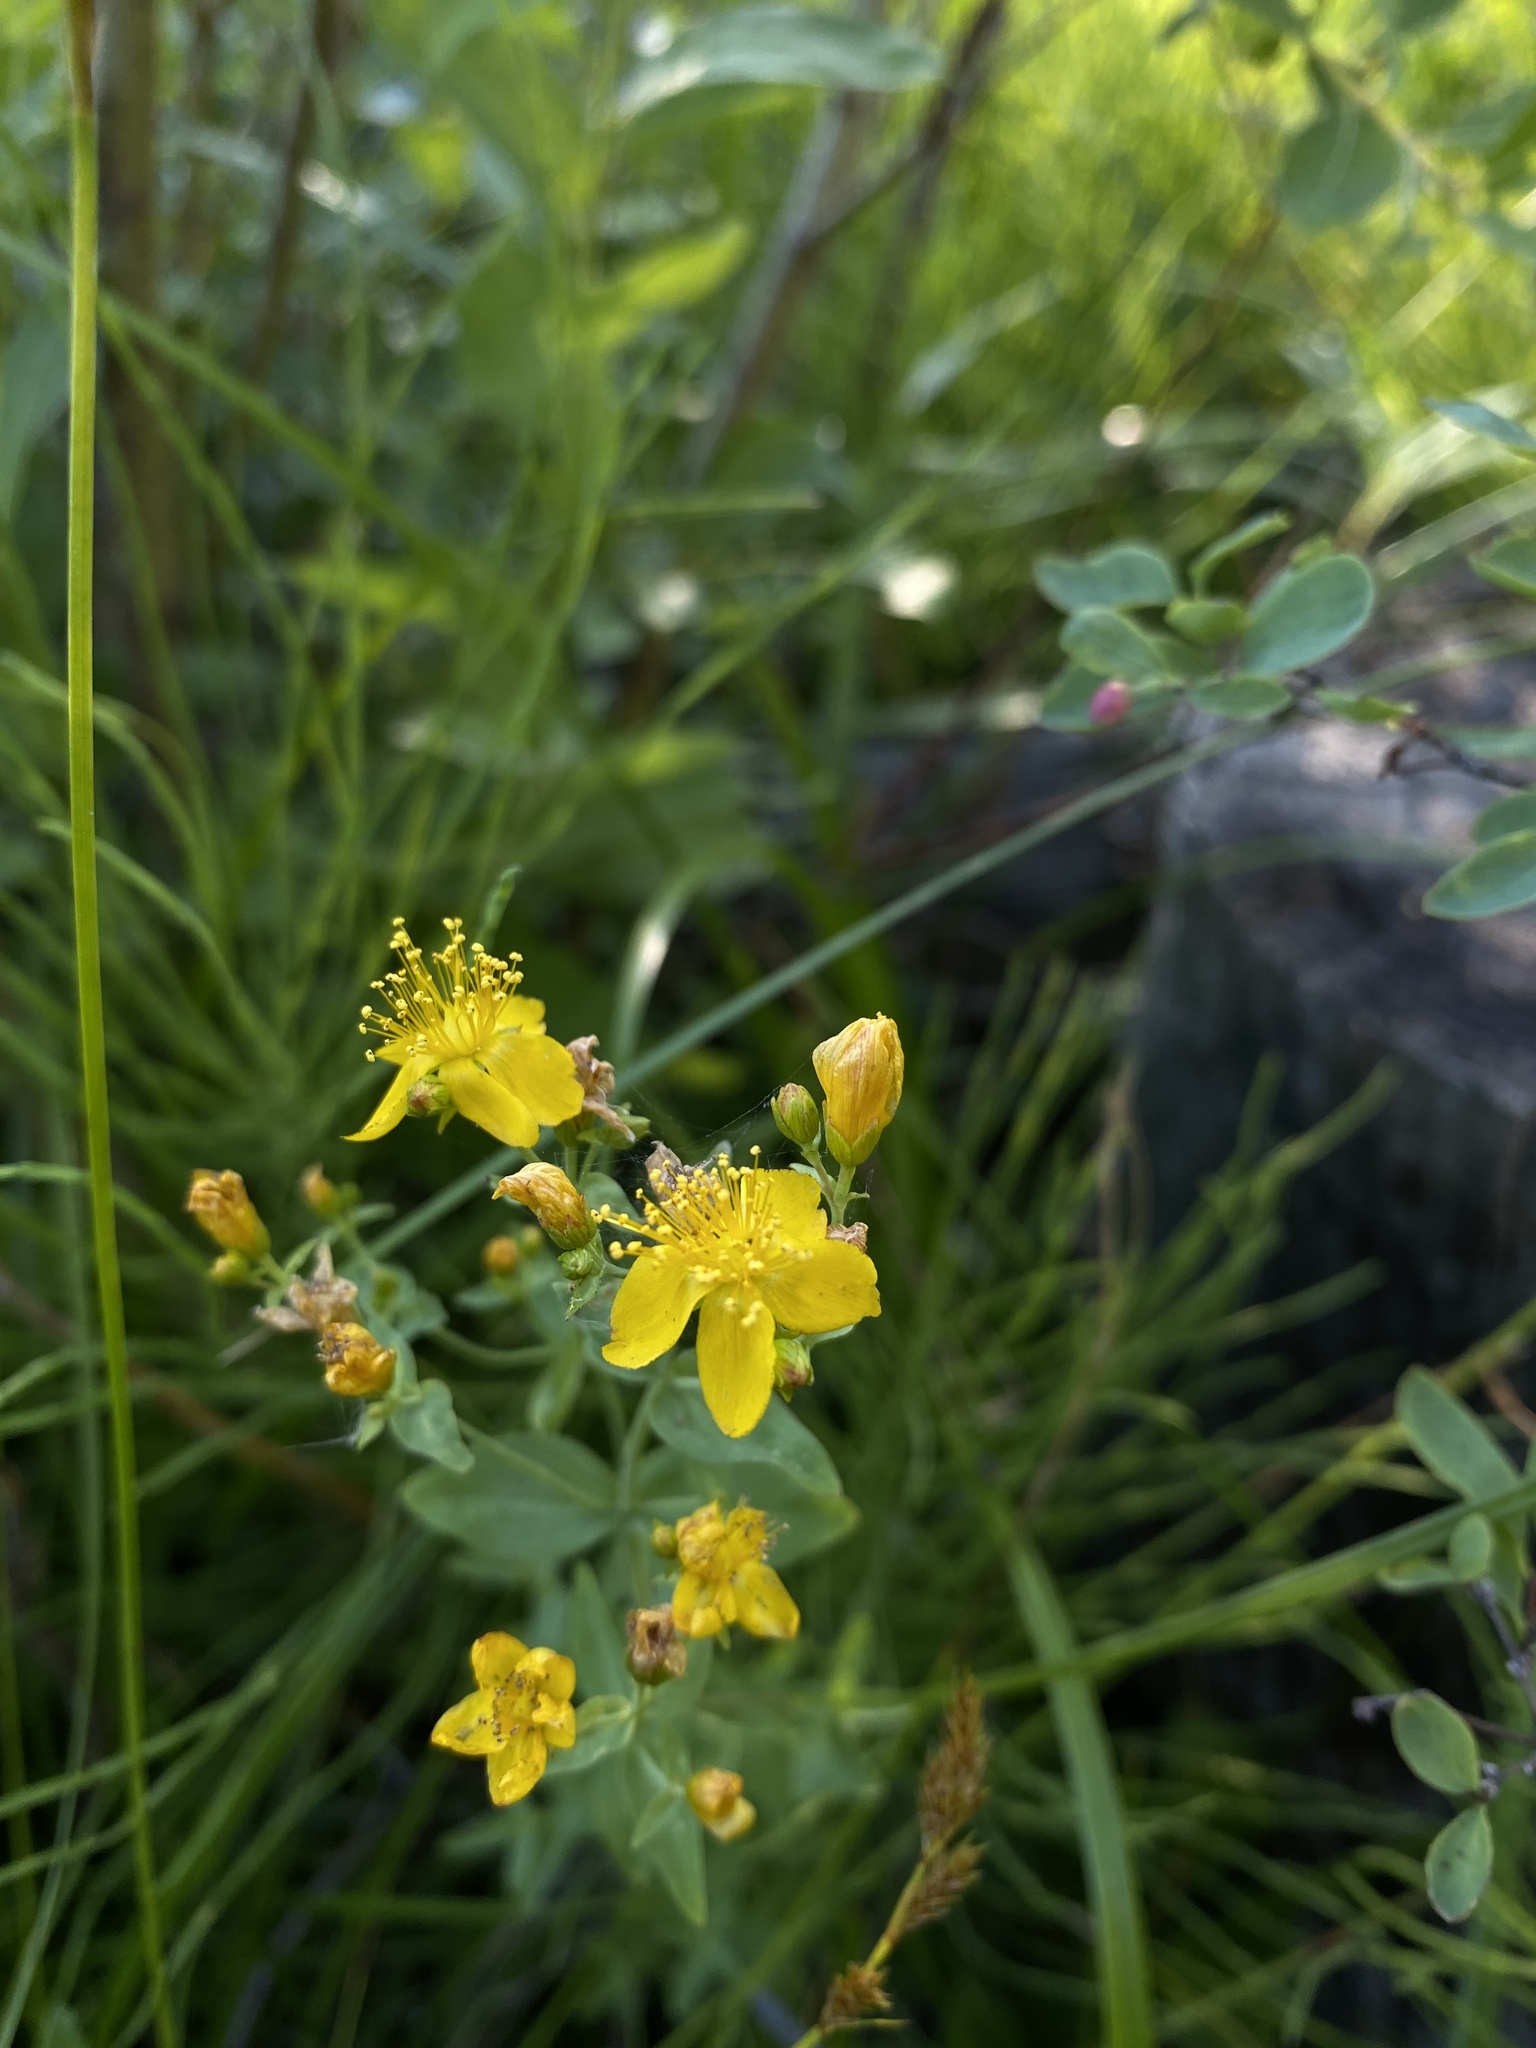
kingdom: Plantae
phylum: Tracheophyta
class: Magnoliopsida
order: Malpighiales
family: Hypericaceae
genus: Hypericum
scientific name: Hypericum scouleri
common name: Scouler's st. john's-wort
